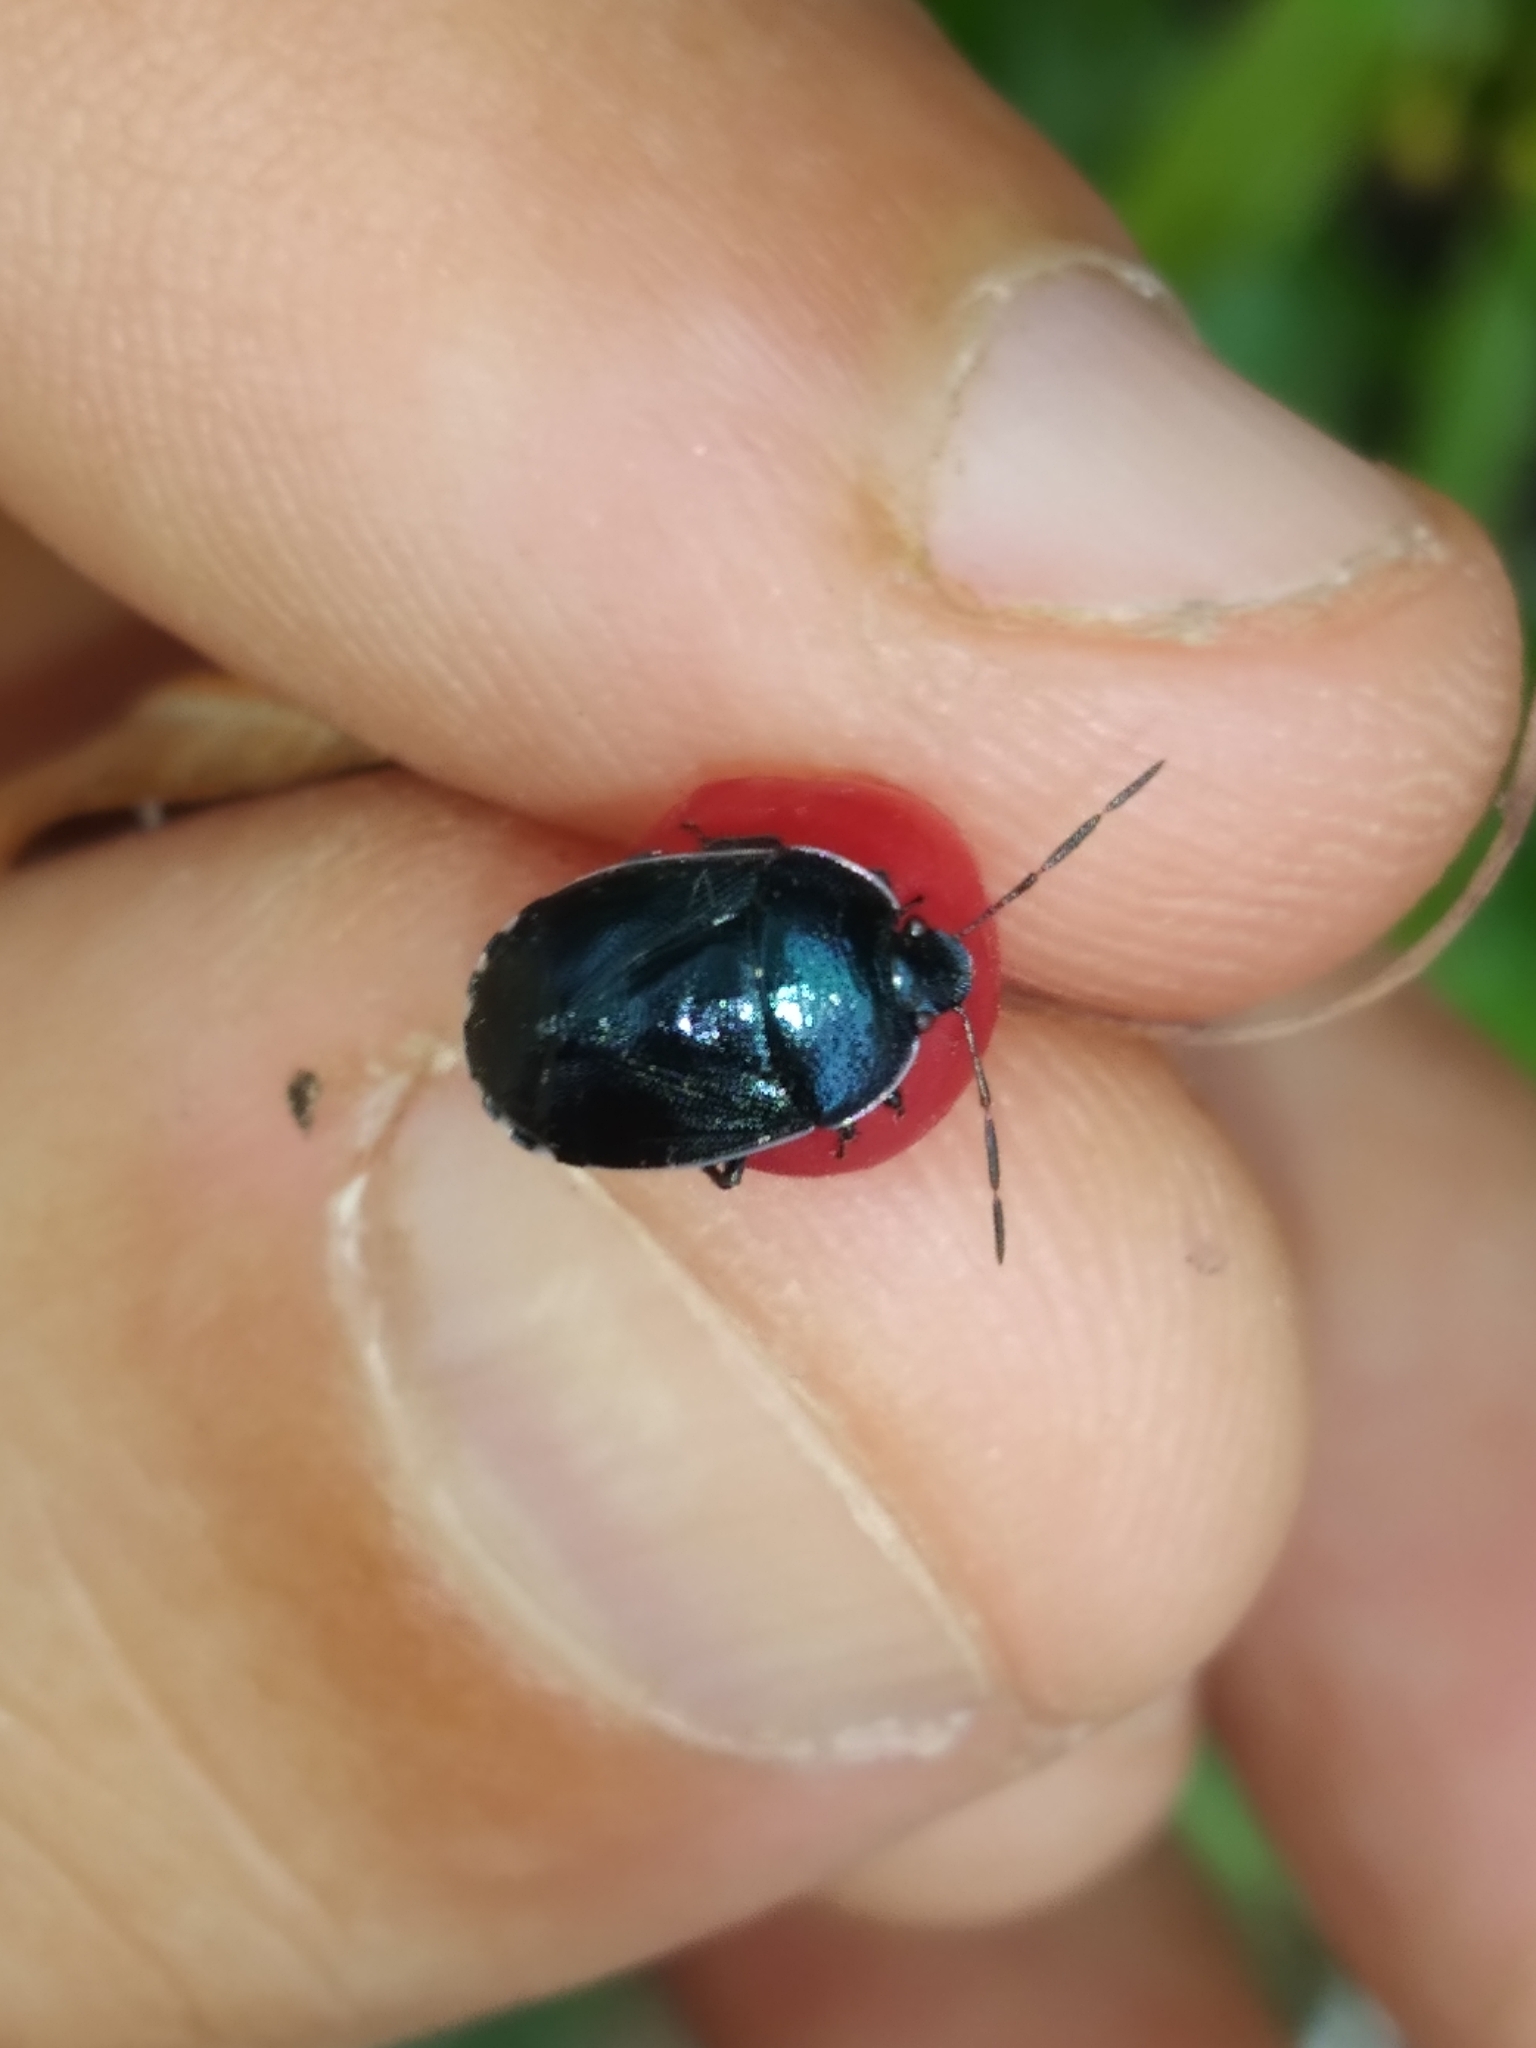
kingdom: Animalia
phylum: Arthropoda
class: Insecta
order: Hemiptera
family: Cydnidae
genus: Canthophorus
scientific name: Canthophorus melanopterus
